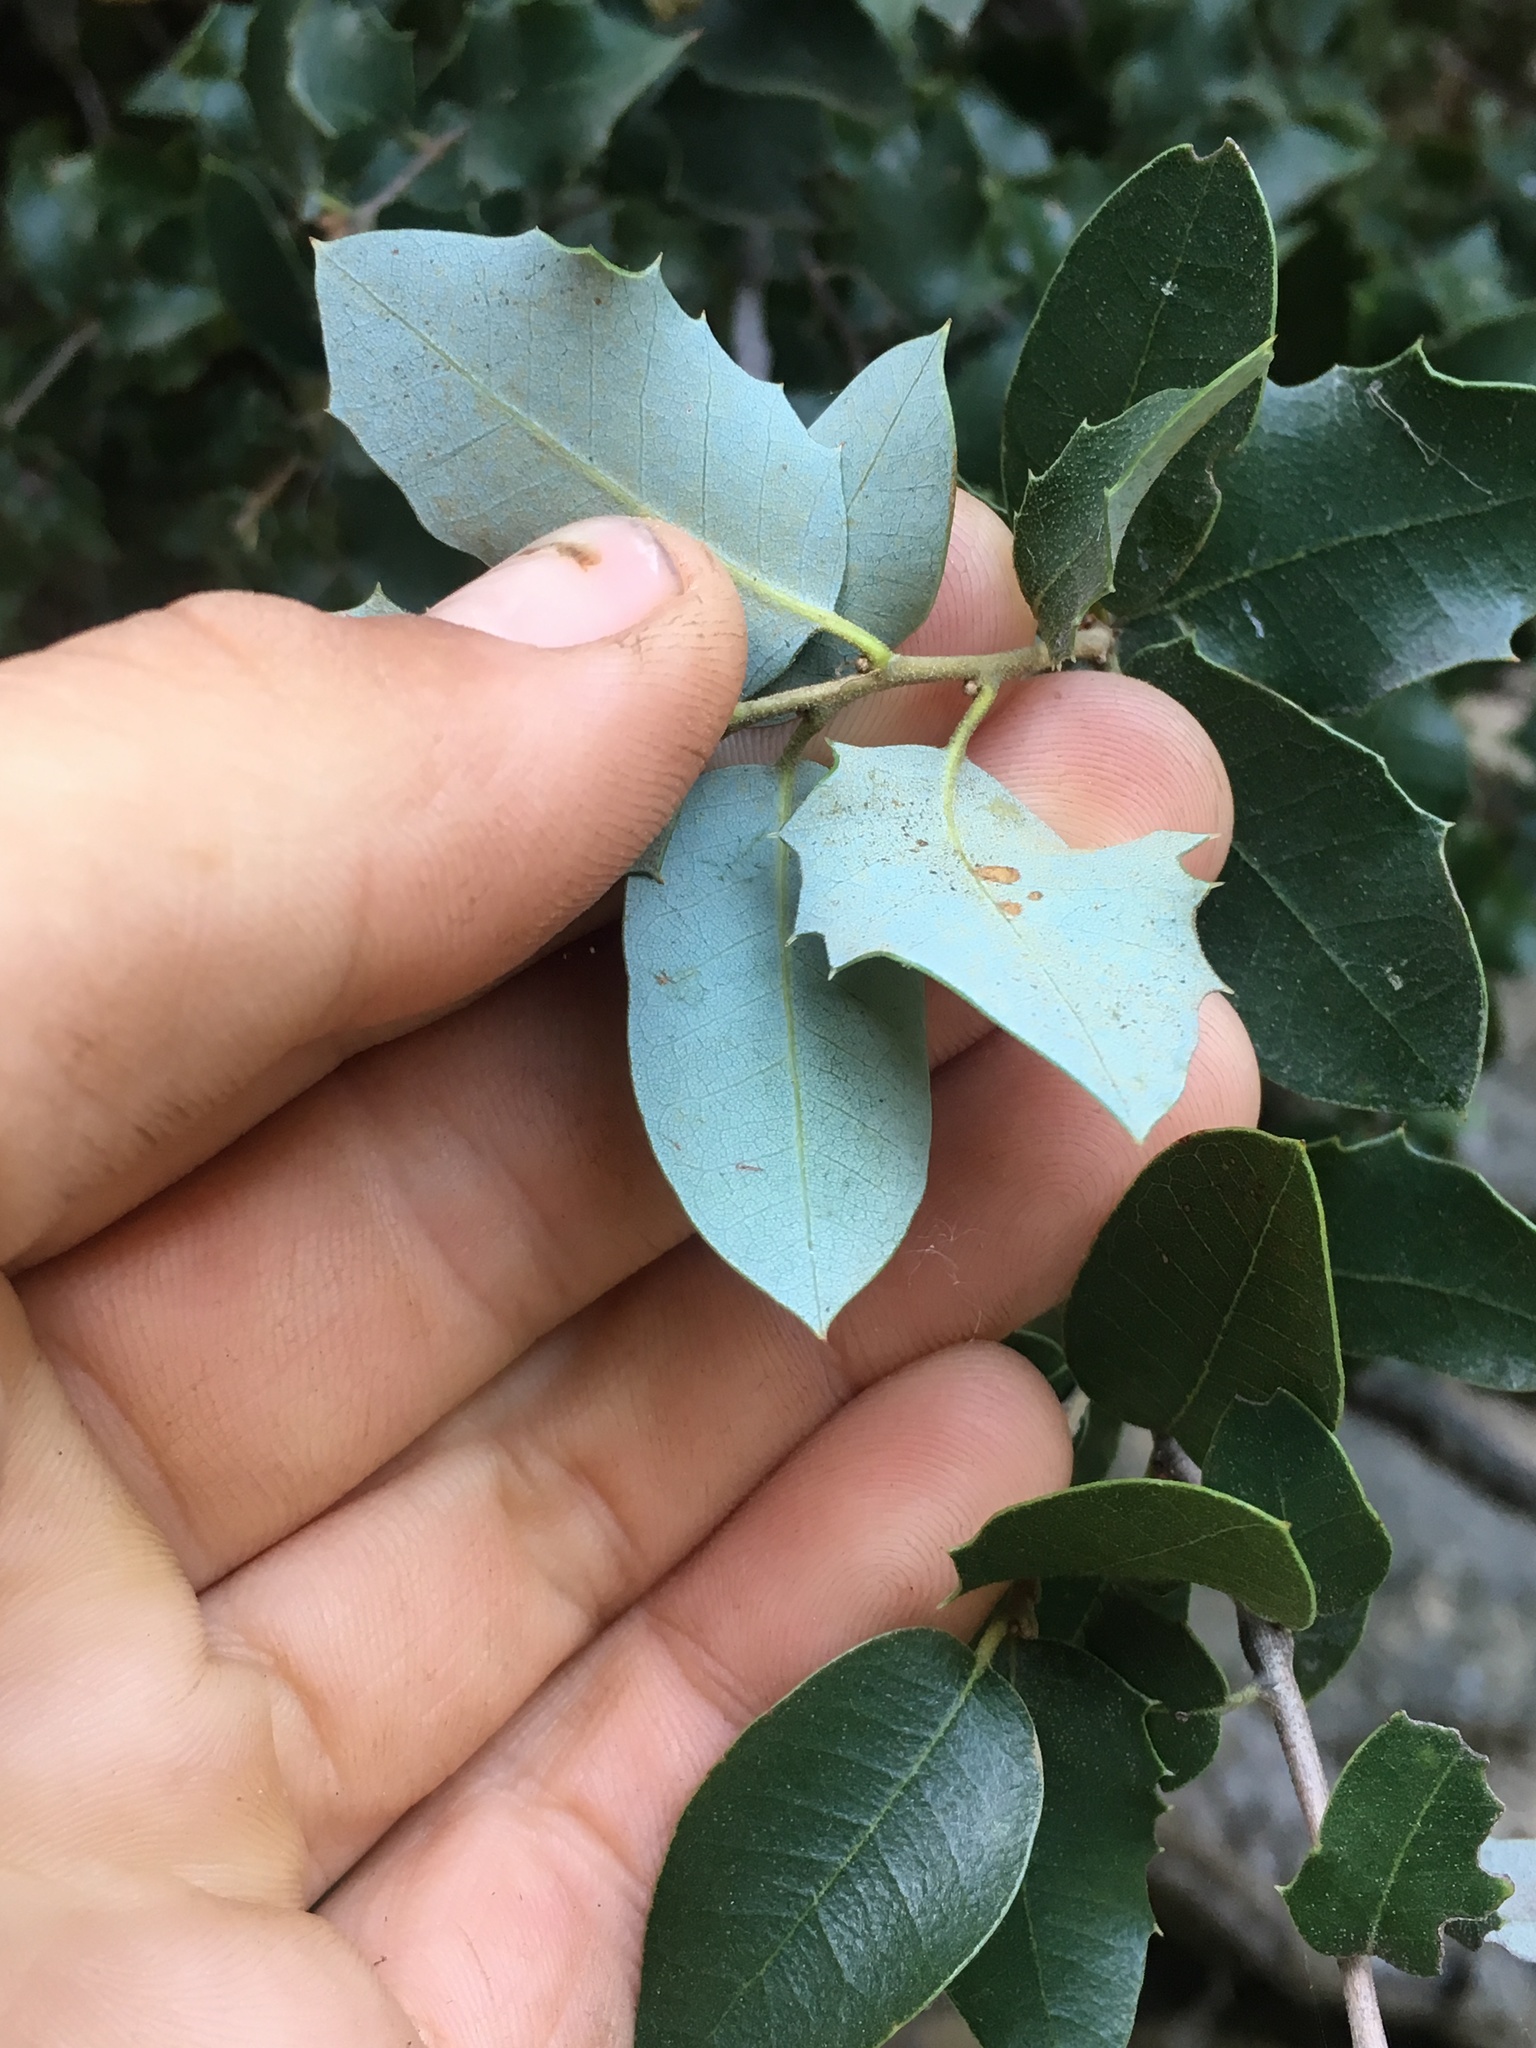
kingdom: Plantae
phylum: Tracheophyta
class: Magnoliopsida
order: Fagales
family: Fagaceae
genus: Quercus
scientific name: Quercus chrysolepis
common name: Canyon live oak
